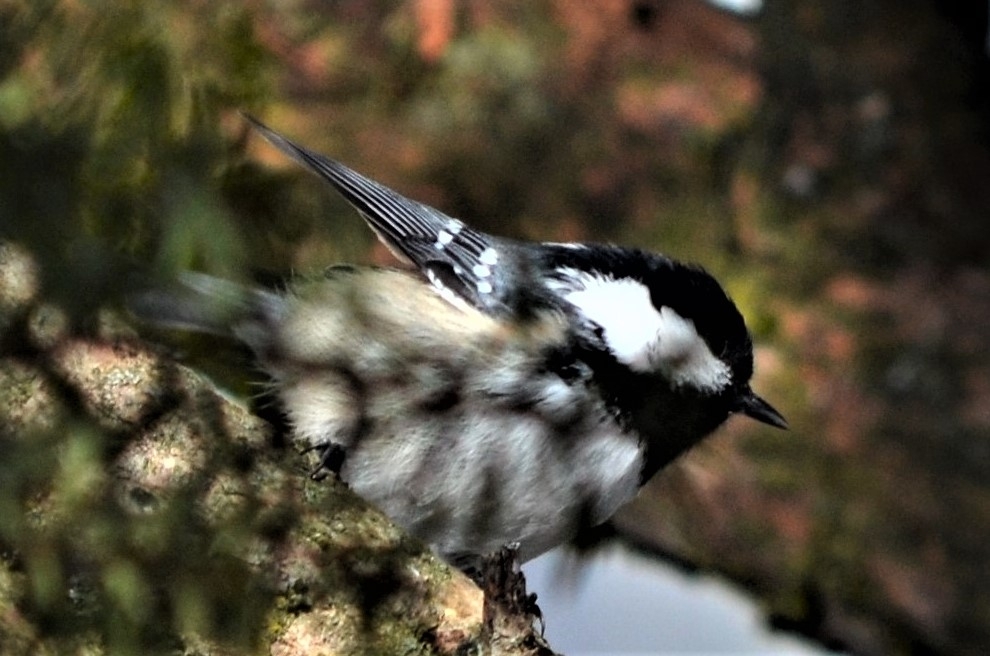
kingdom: Animalia
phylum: Chordata
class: Aves
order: Passeriformes
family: Paridae
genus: Periparus
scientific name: Periparus ater
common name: Coal tit
